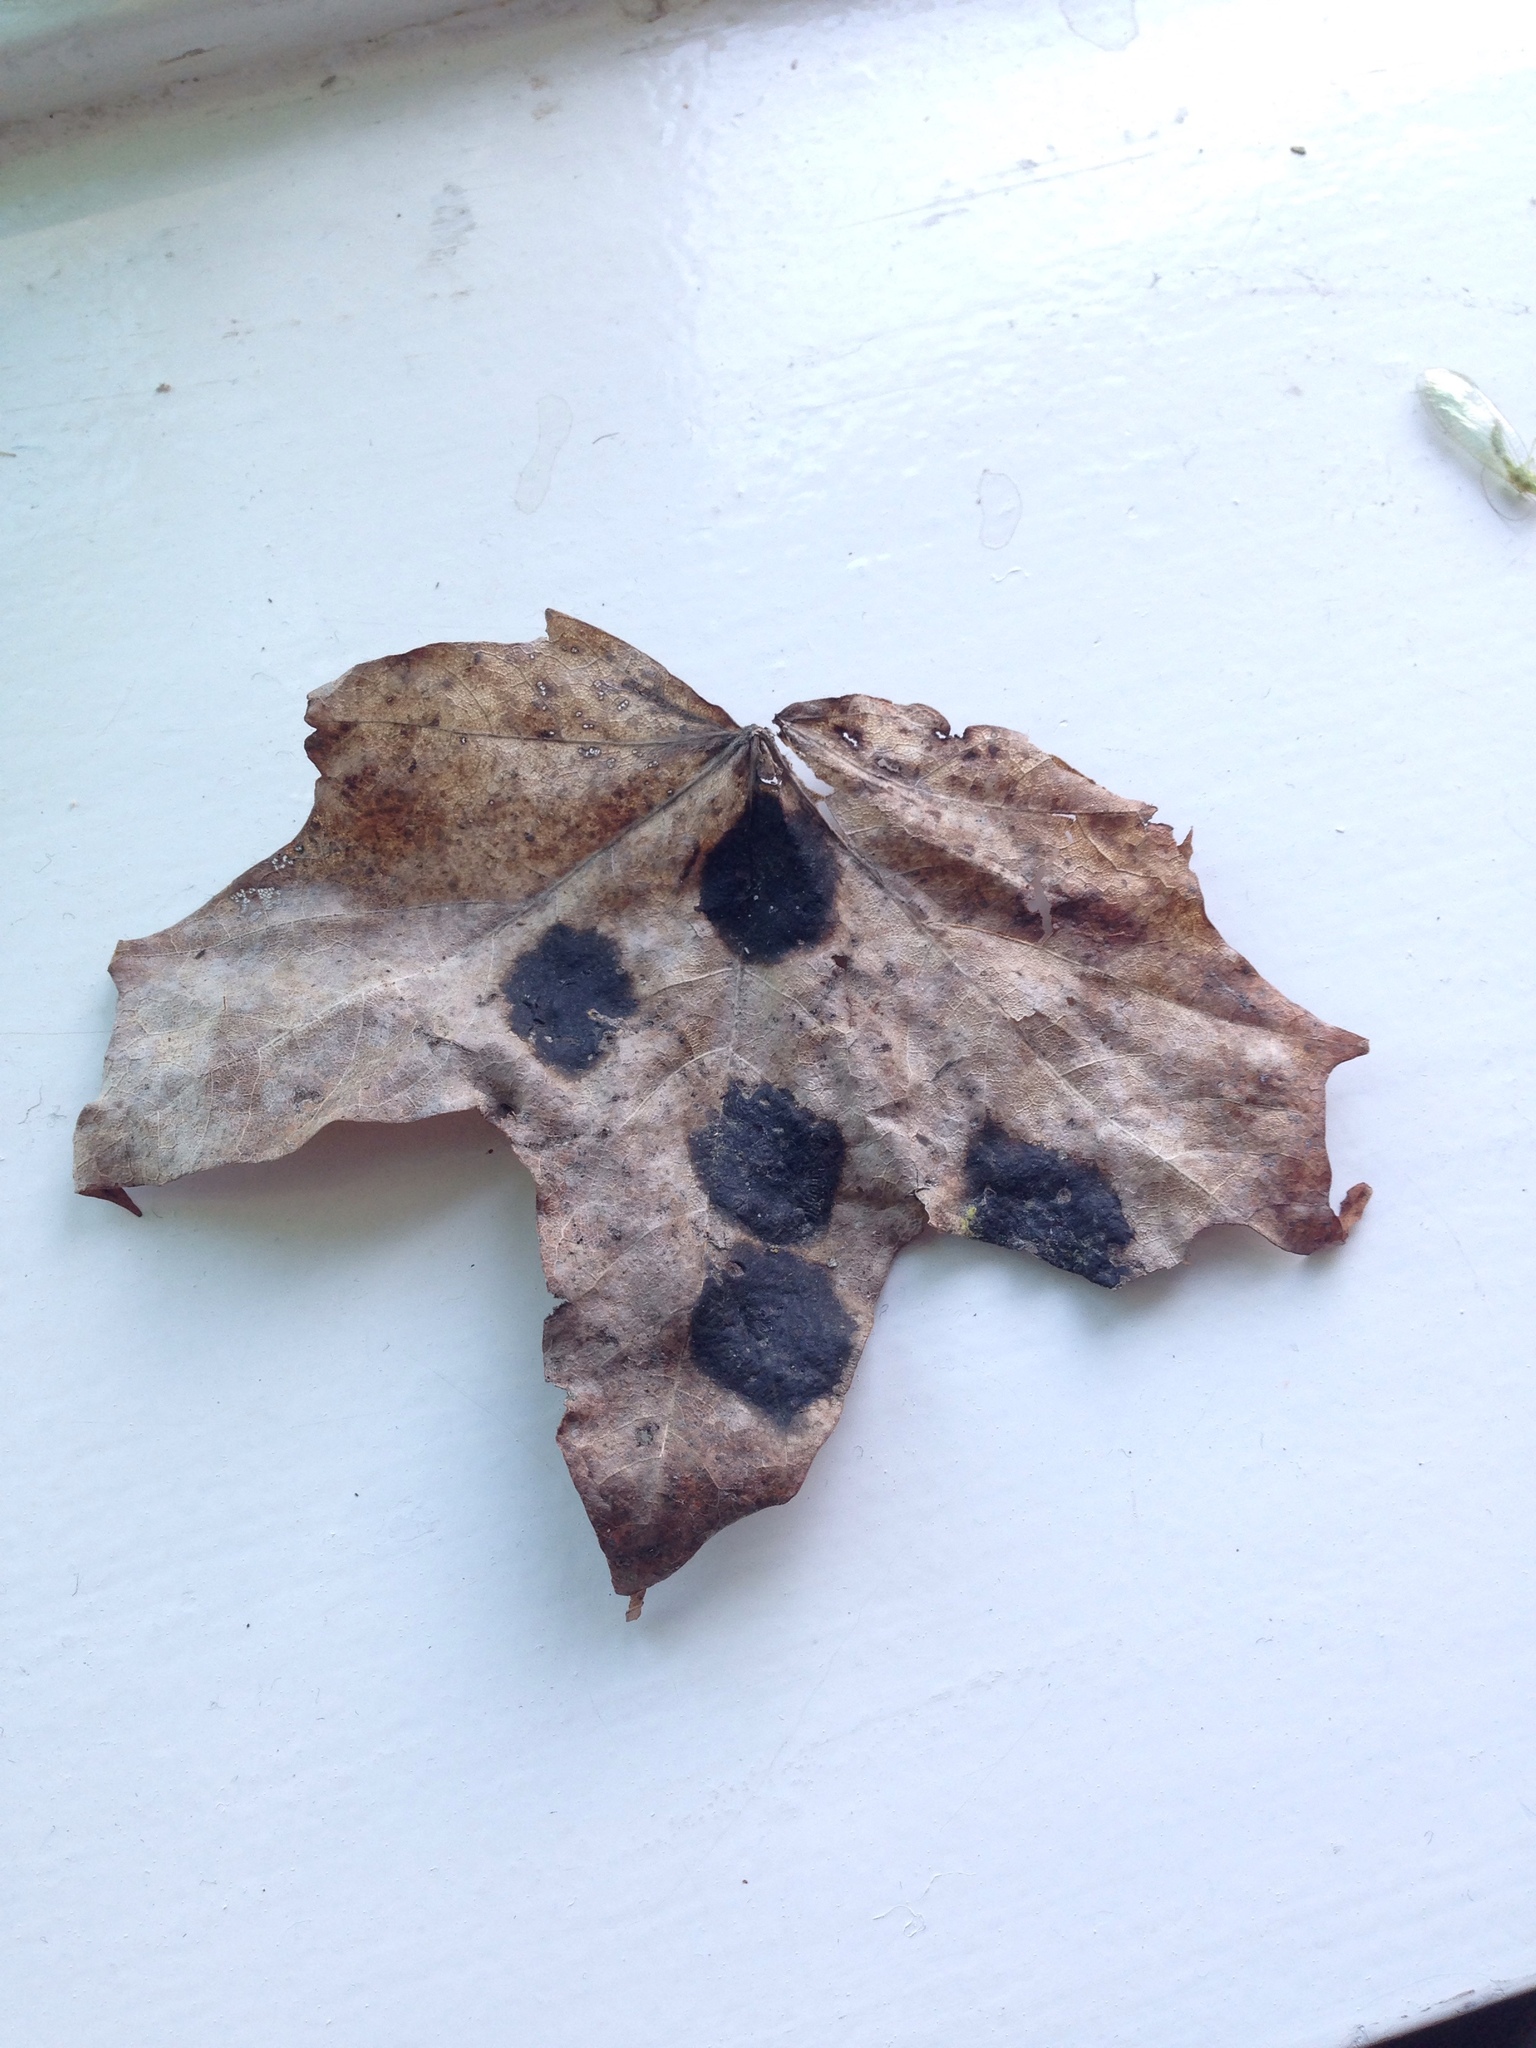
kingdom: Fungi
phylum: Ascomycota
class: Leotiomycetes
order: Rhytismatales
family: Rhytismataceae
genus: Rhytisma
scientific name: Rhytisma acerinum
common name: European tar spot
